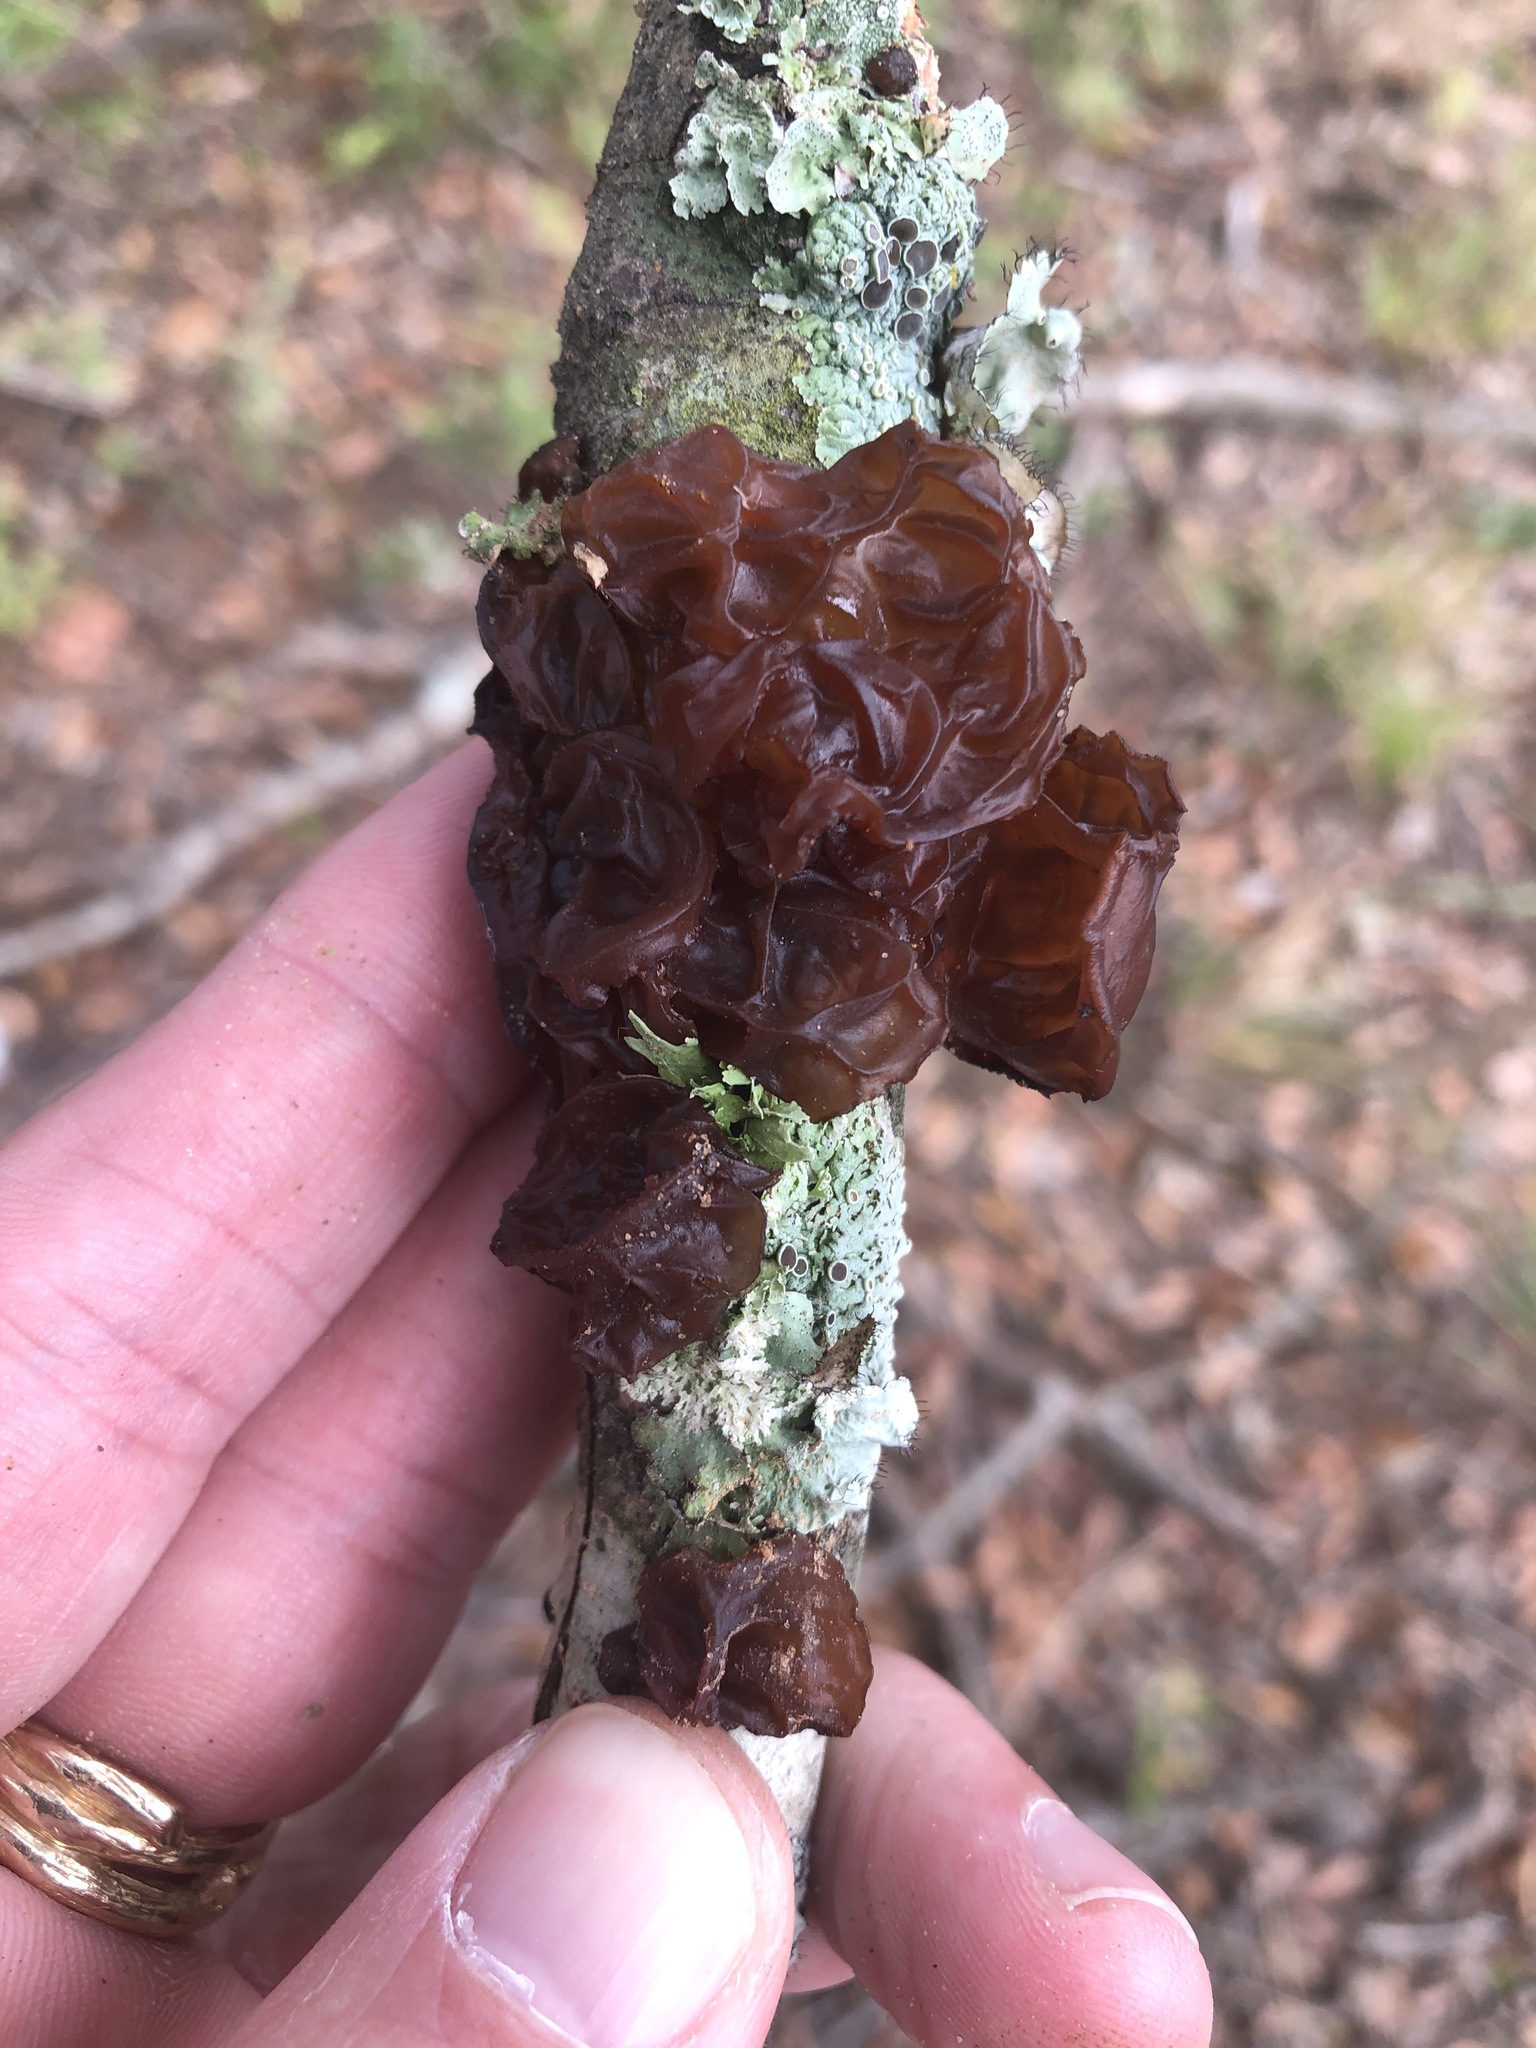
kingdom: Fungi
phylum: Basidiomycota
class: Agaricomycetes
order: Auriculariales
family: Auriculariaceae
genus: Exidia
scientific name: Exidia
